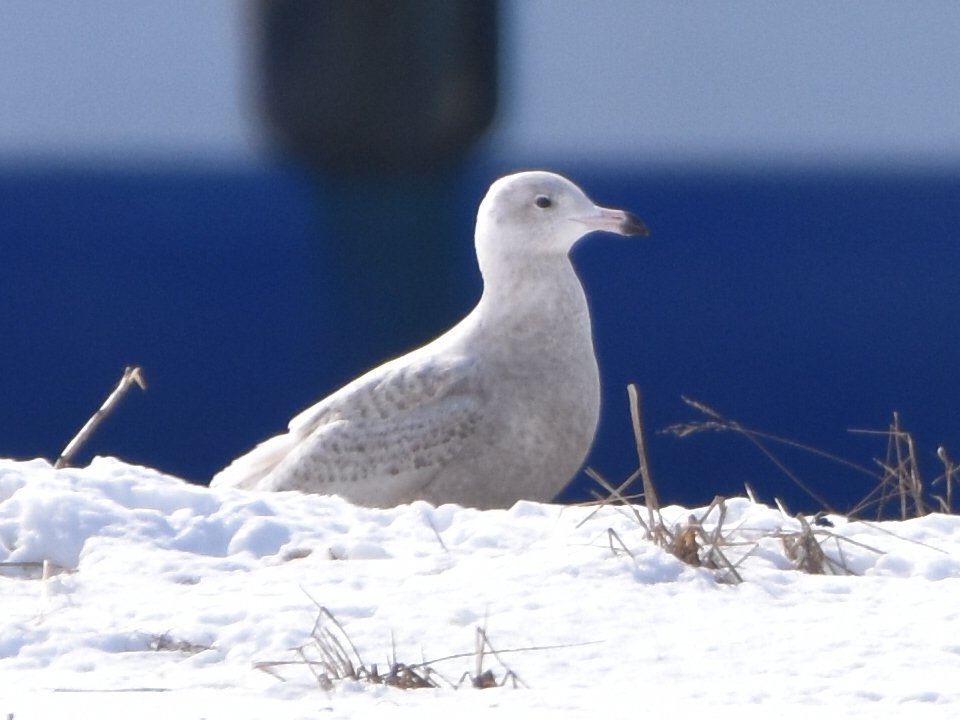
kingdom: Animalia
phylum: Chordata
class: Aves
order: Charadriiformes
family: Laridae
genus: Larus
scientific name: Larus hyperboreus
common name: Glaucous gull
